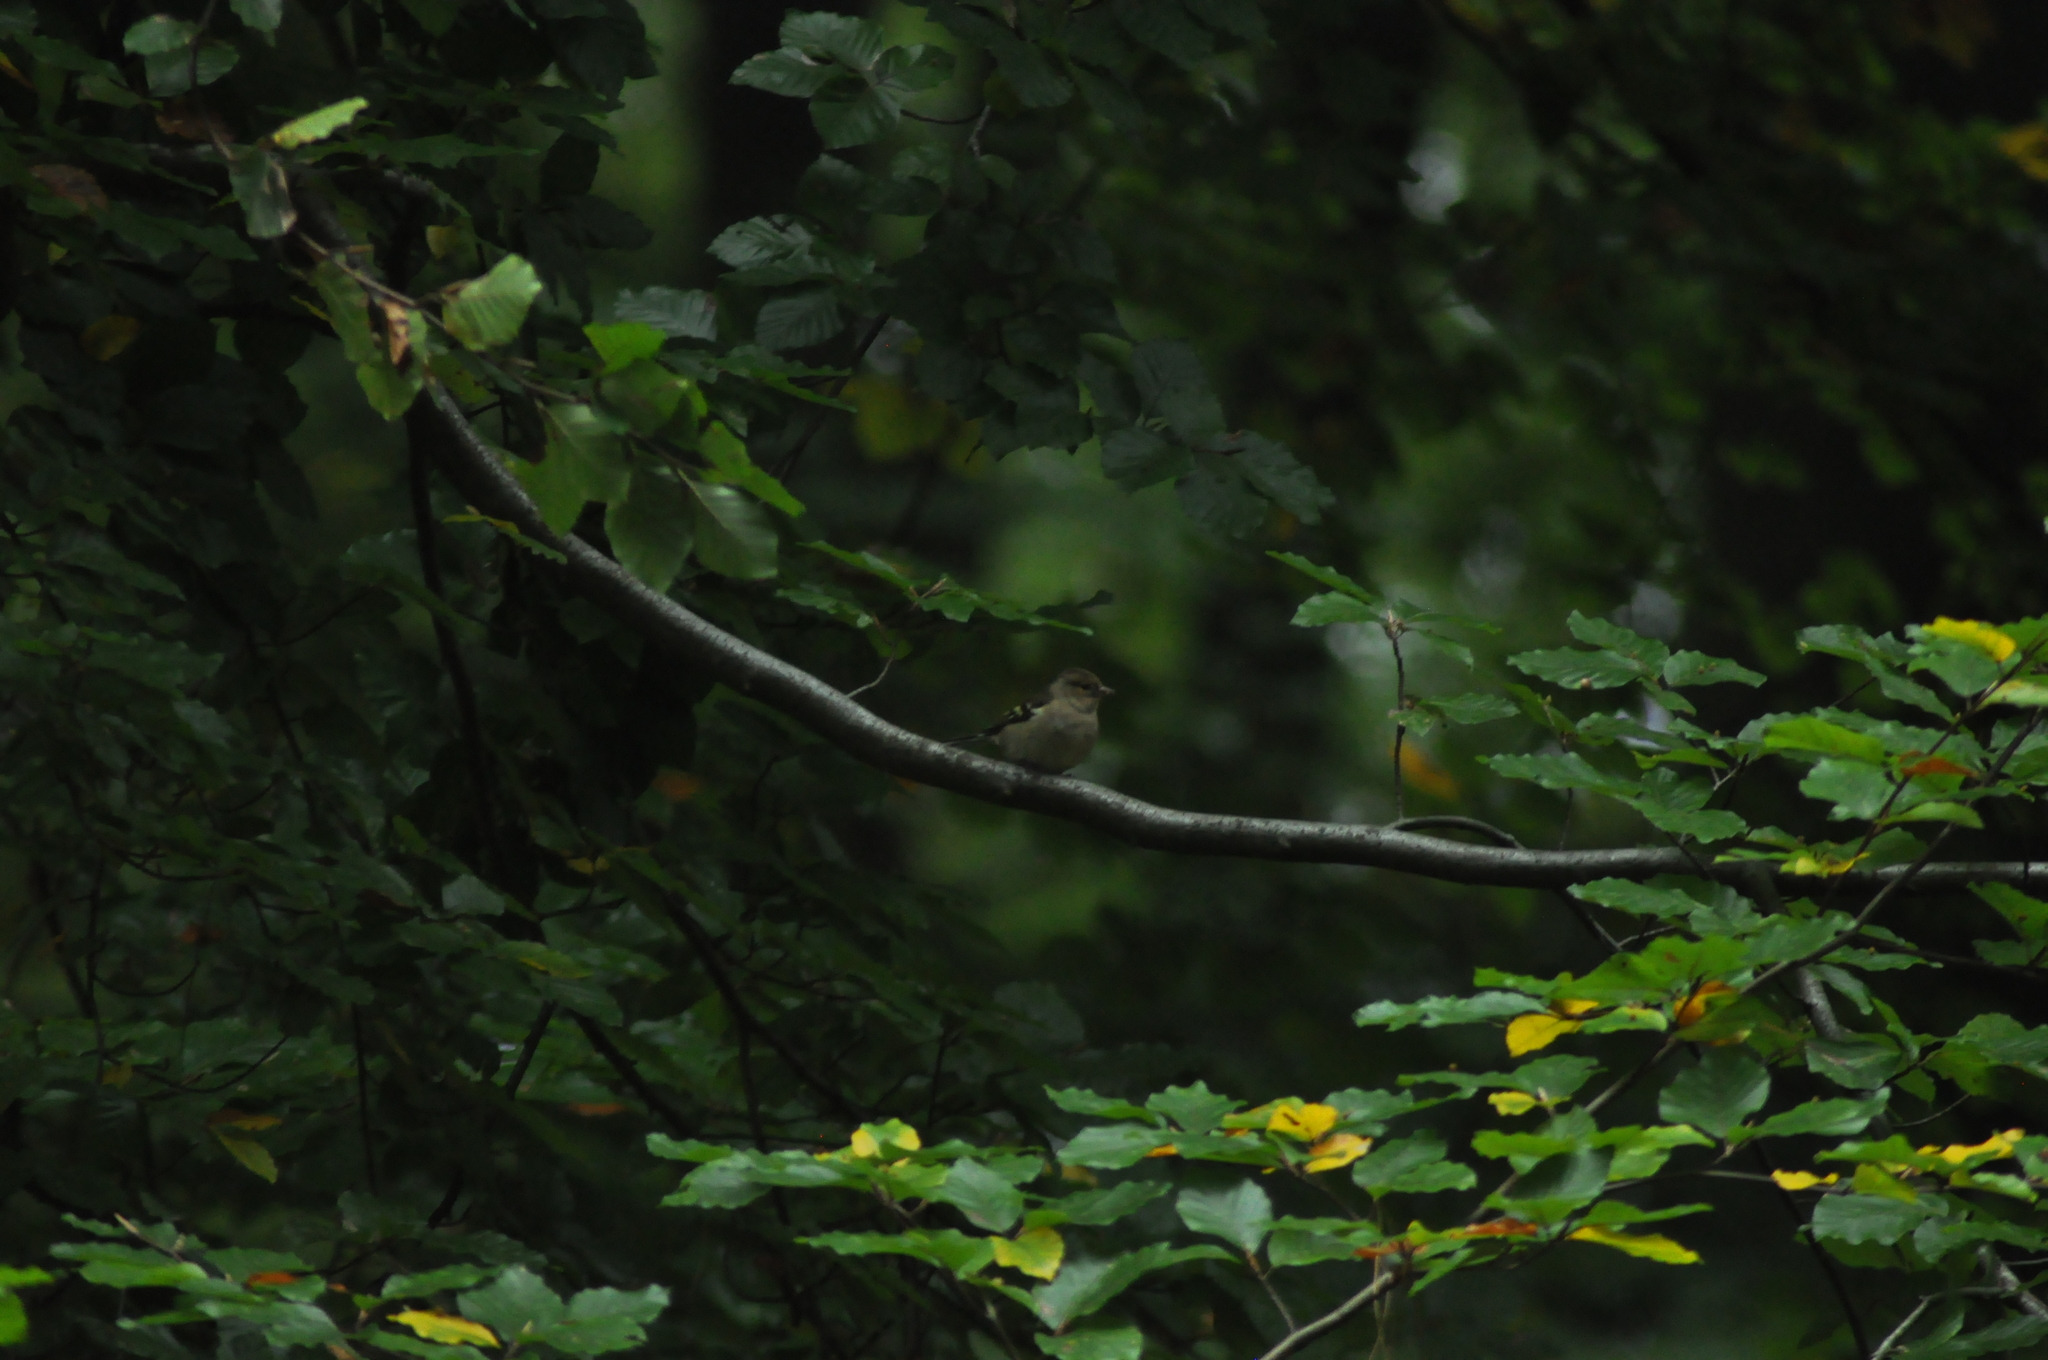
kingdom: Animalia
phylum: Chordata
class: Aves
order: Passeriformes
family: Fringillidae
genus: Fringilla
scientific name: Fringilla coelebs
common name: Common chaffinch
